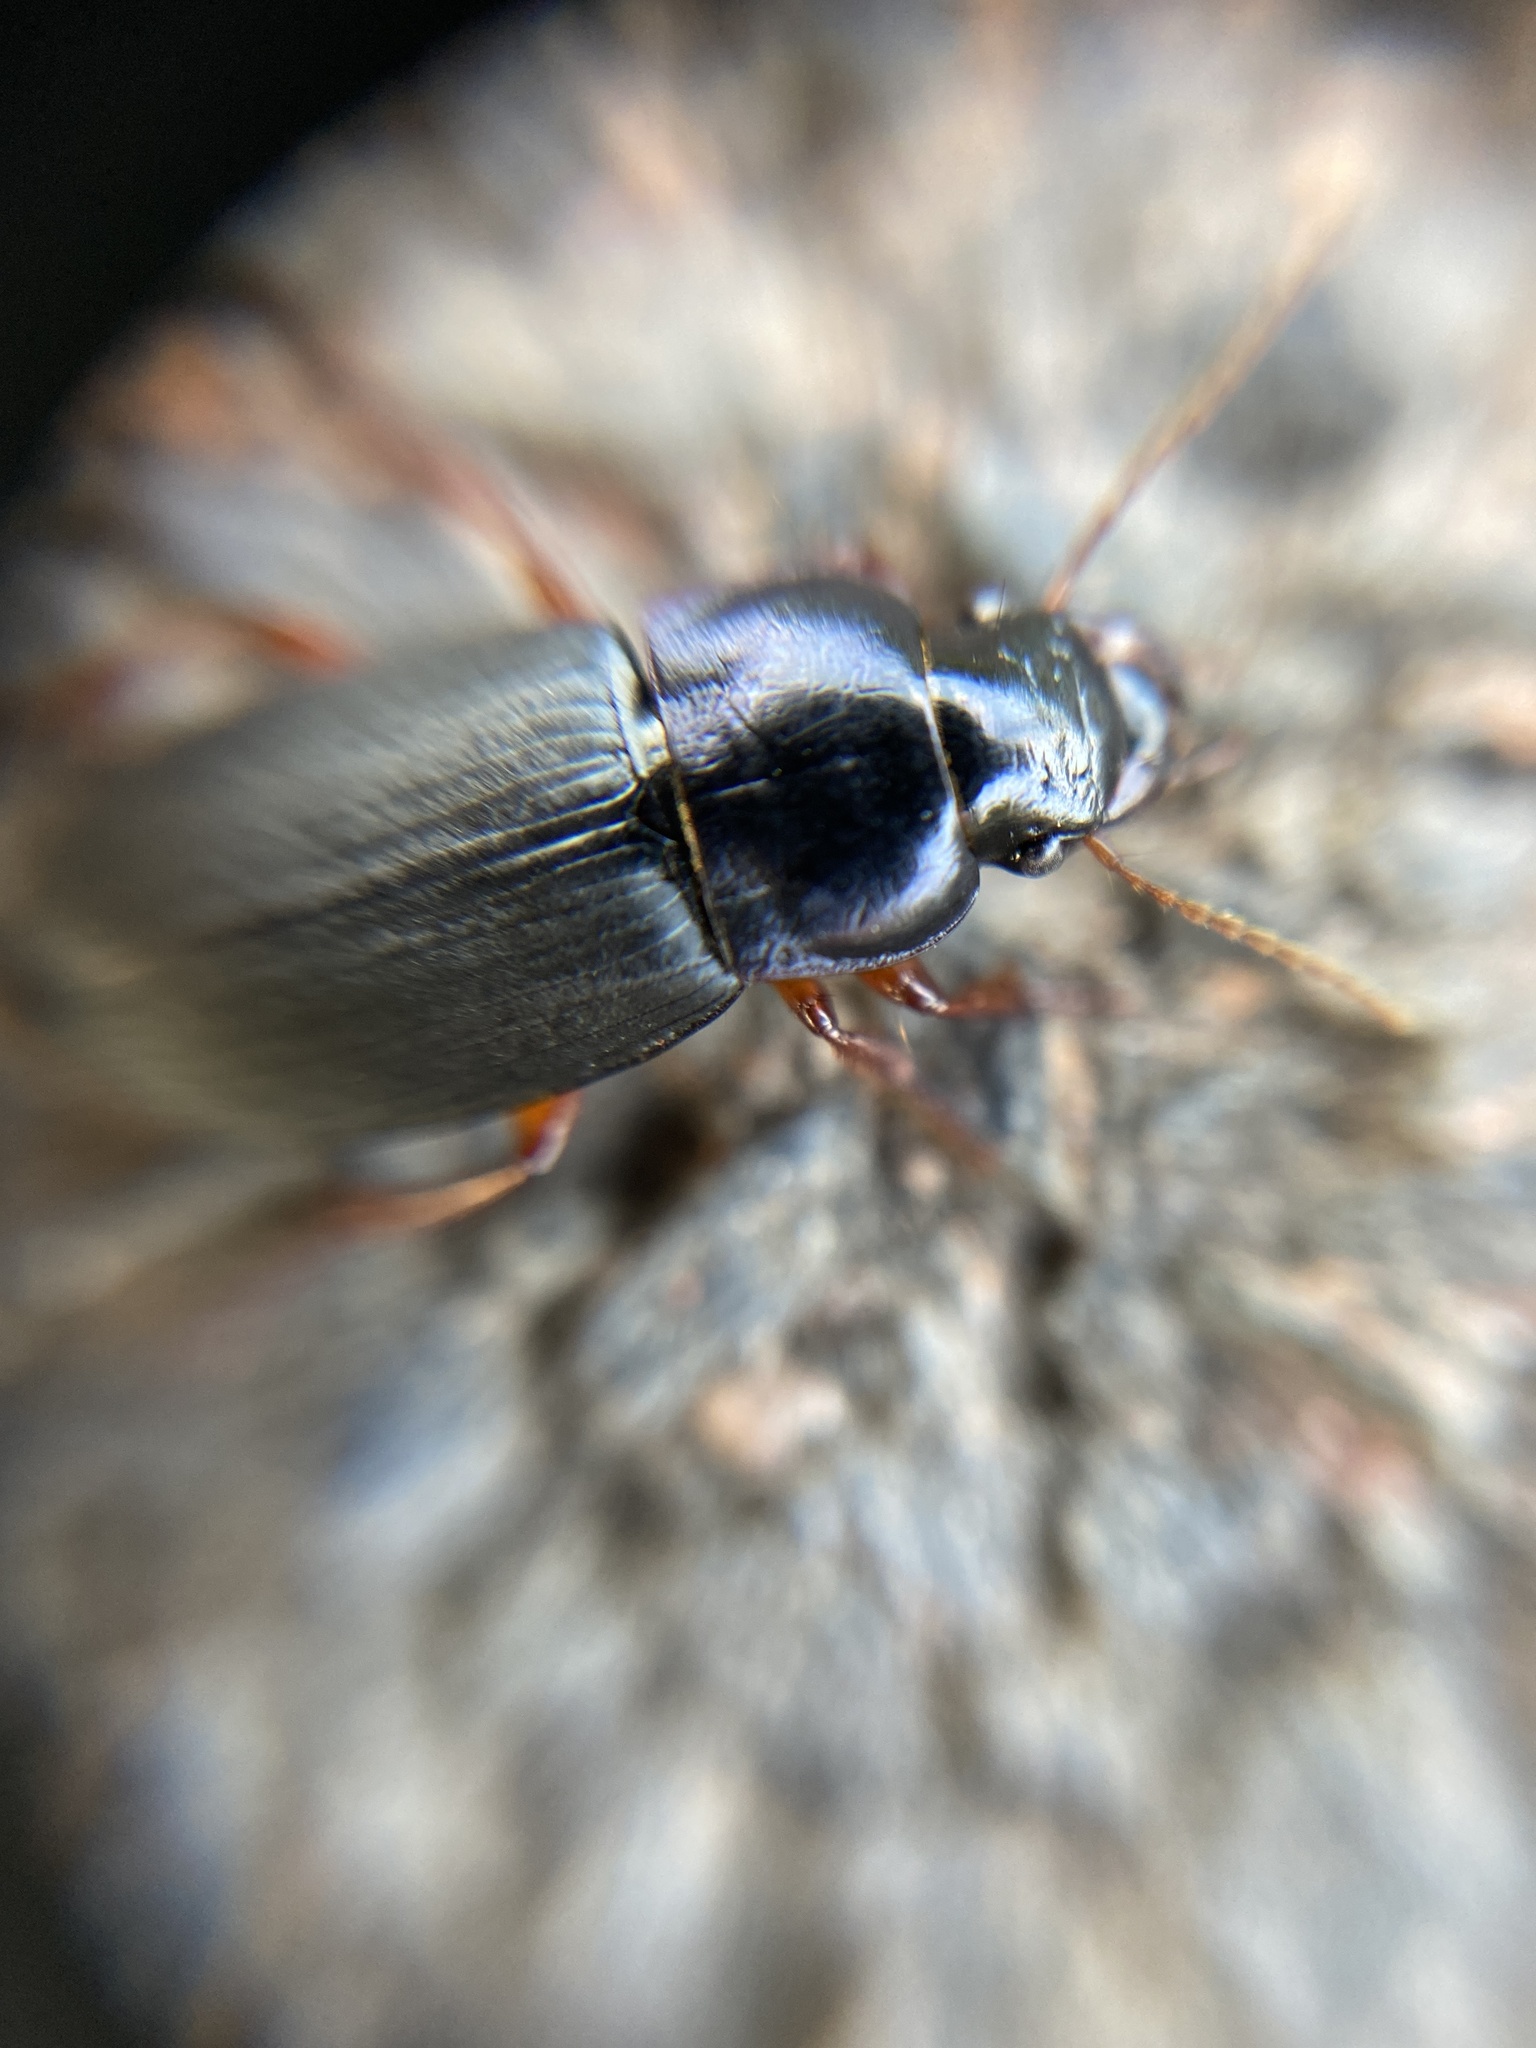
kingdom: Animalia
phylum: Arthropoda
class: Insecta
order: Coleoptera
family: Carabidae
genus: Harpalus
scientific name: Harpalus rufipes
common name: Strawberry harp ground beetle
